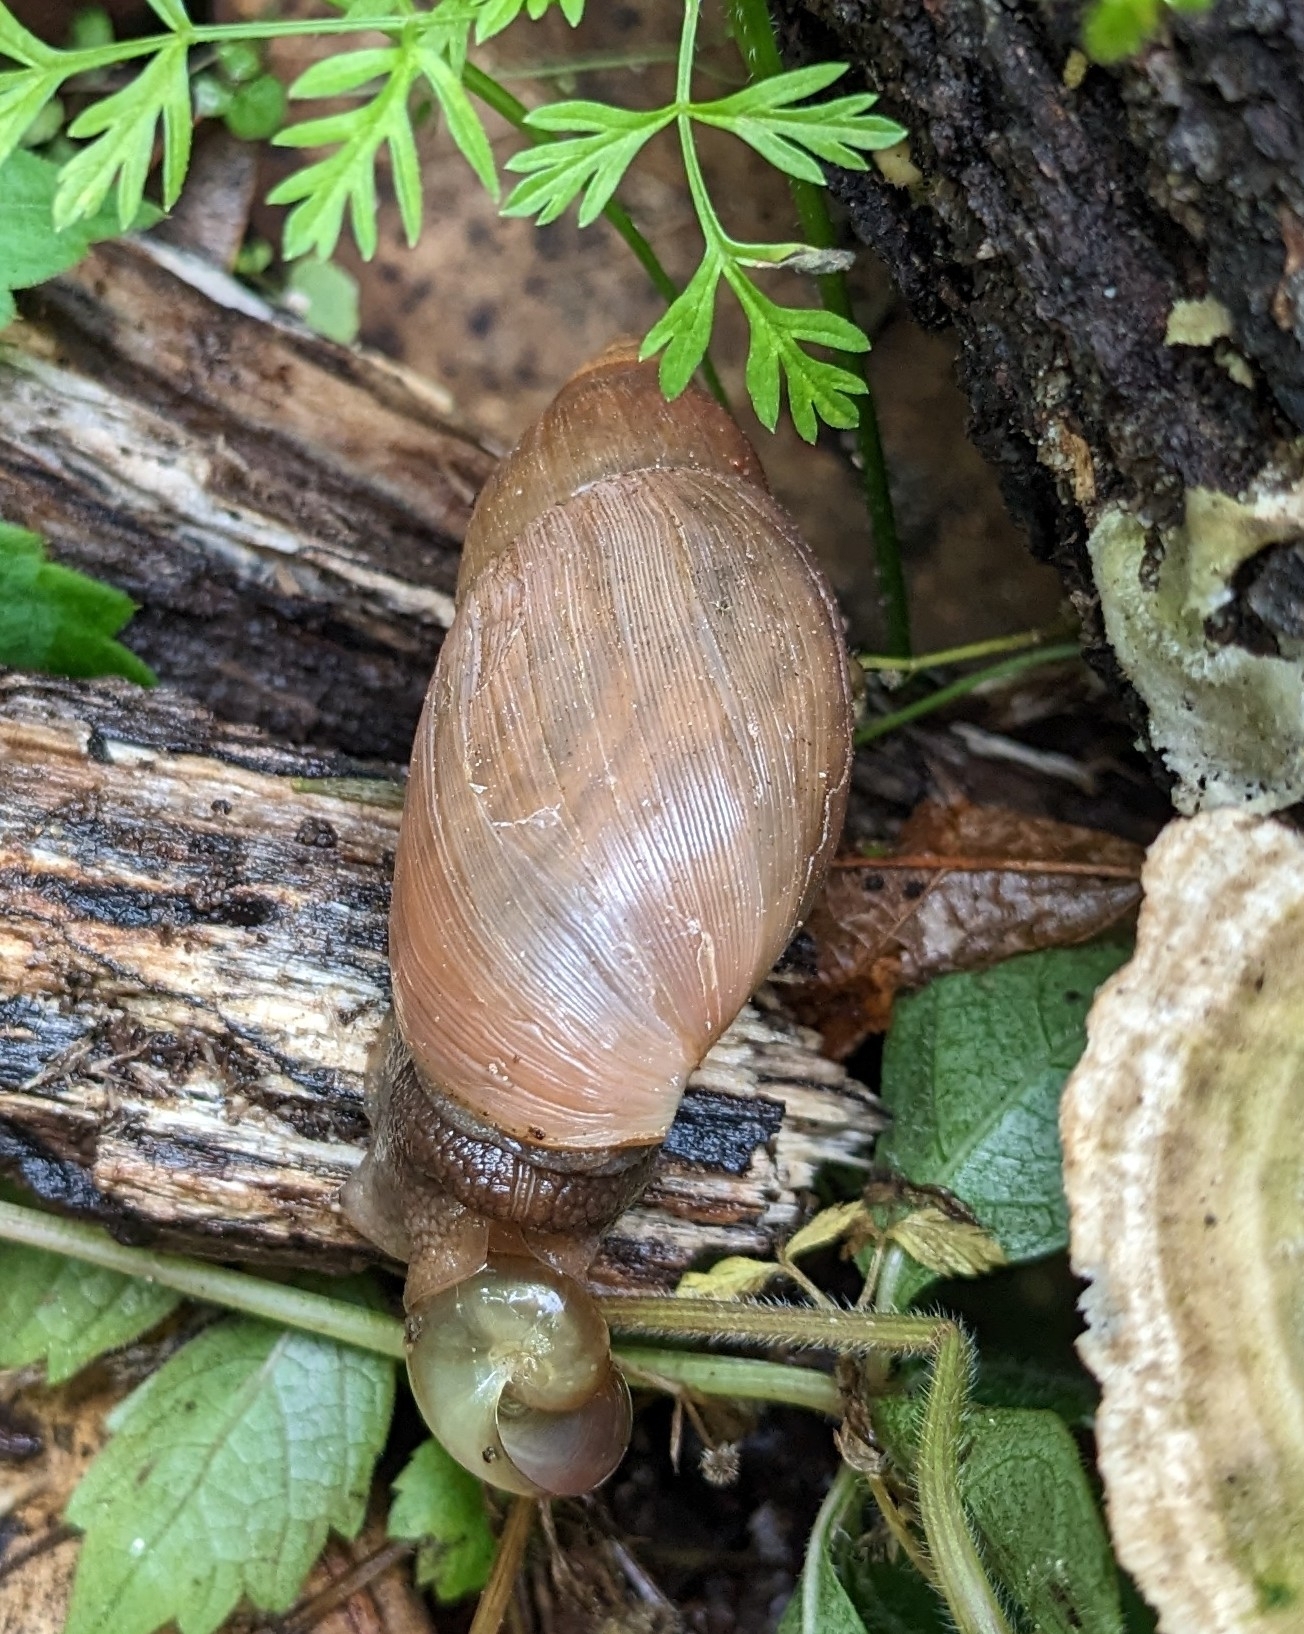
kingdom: Animalia
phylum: Mollusca
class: Gastropoda
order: Stylommatophora
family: Spiraxidae
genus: Euglandina
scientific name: Euglandina rosea
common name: Rosy wolfsnail
